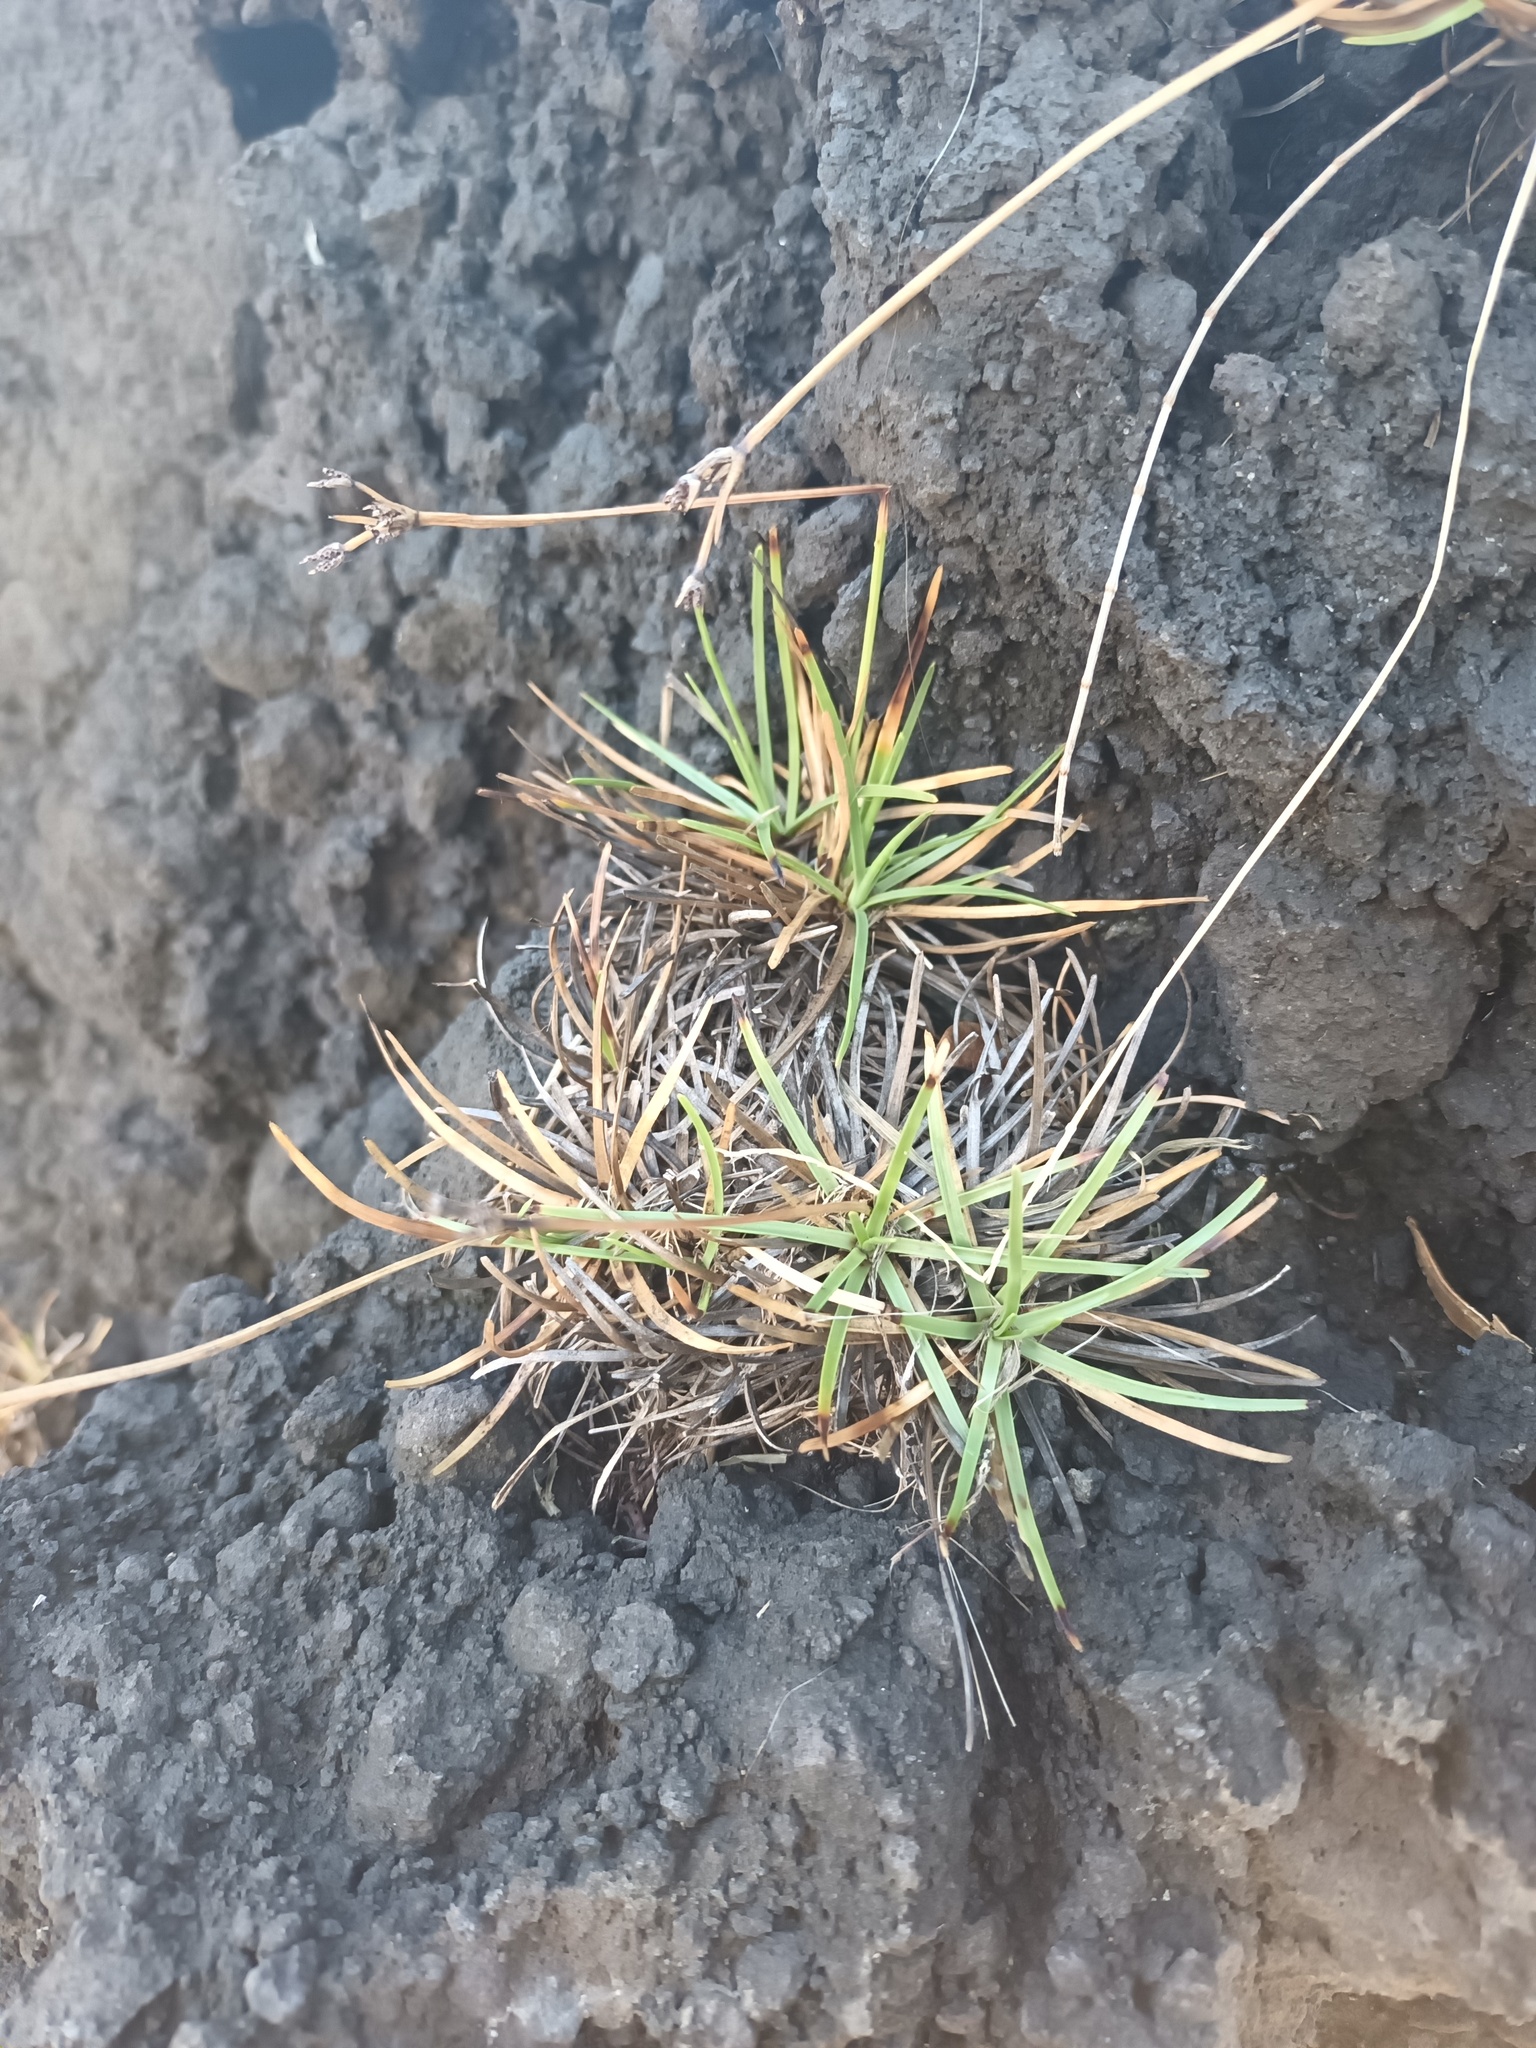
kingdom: Plantae
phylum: Tracheophyta
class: Liliopsida
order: Poales
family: Cyperaceae
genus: Fimbristylis
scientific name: Fimbristylis cymosa
